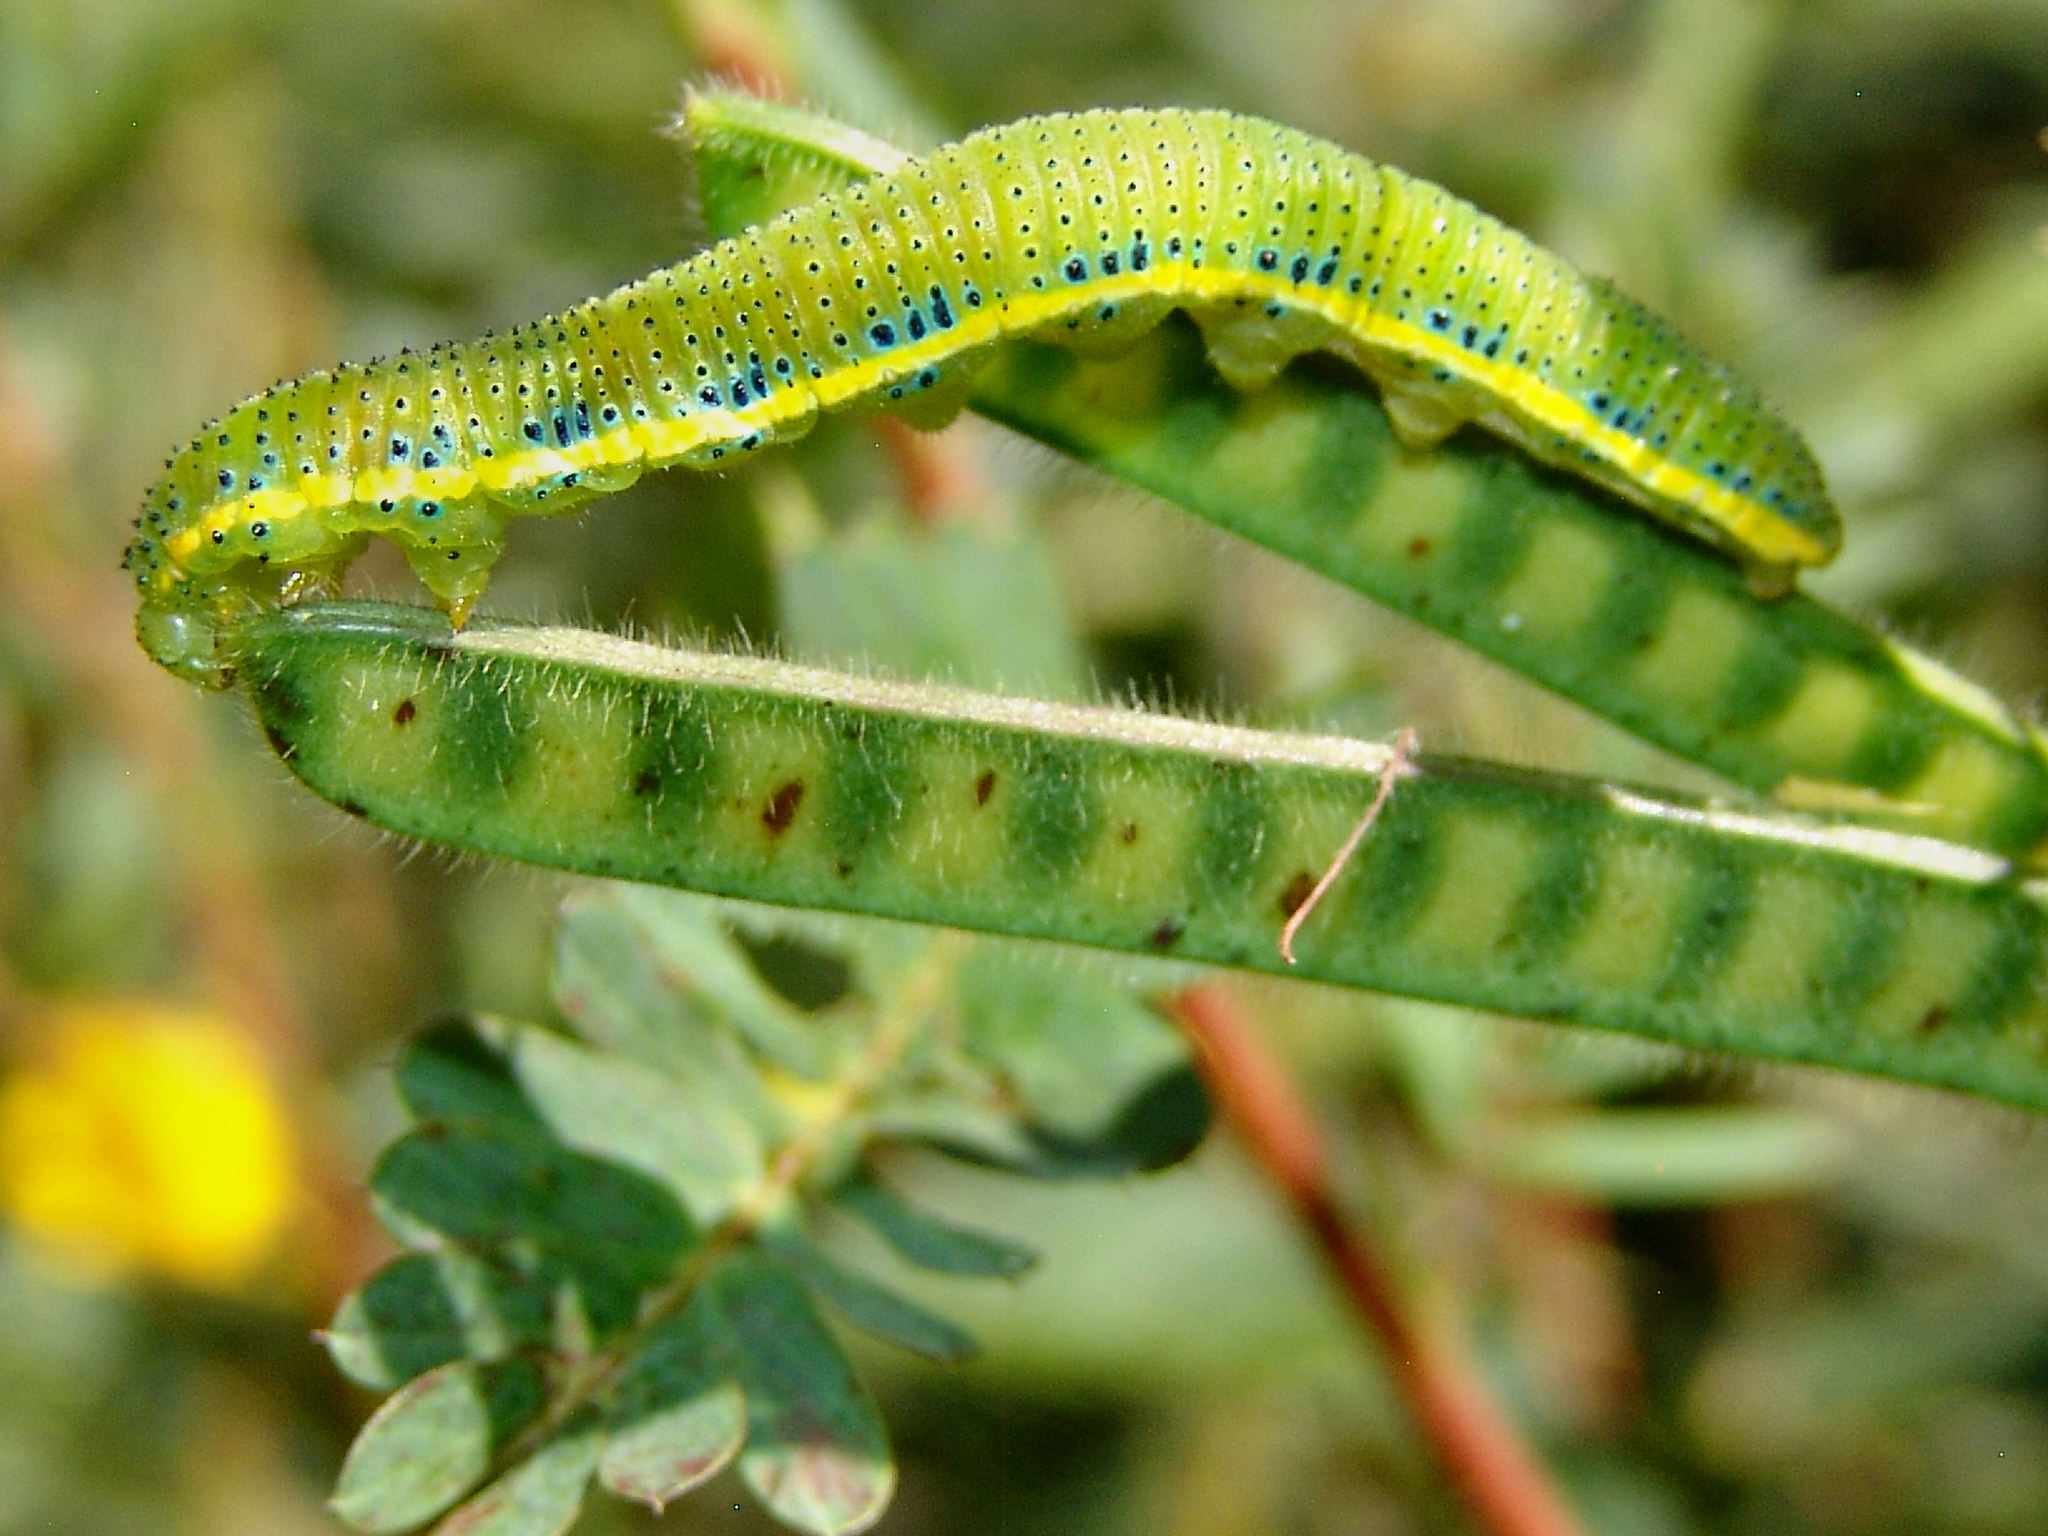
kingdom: Animalia
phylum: Arthropoda
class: Insecta
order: Lepidoptera
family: Pieridae
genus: Phoebis
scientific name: Phoebis sennae
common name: Cloudless sulphur
